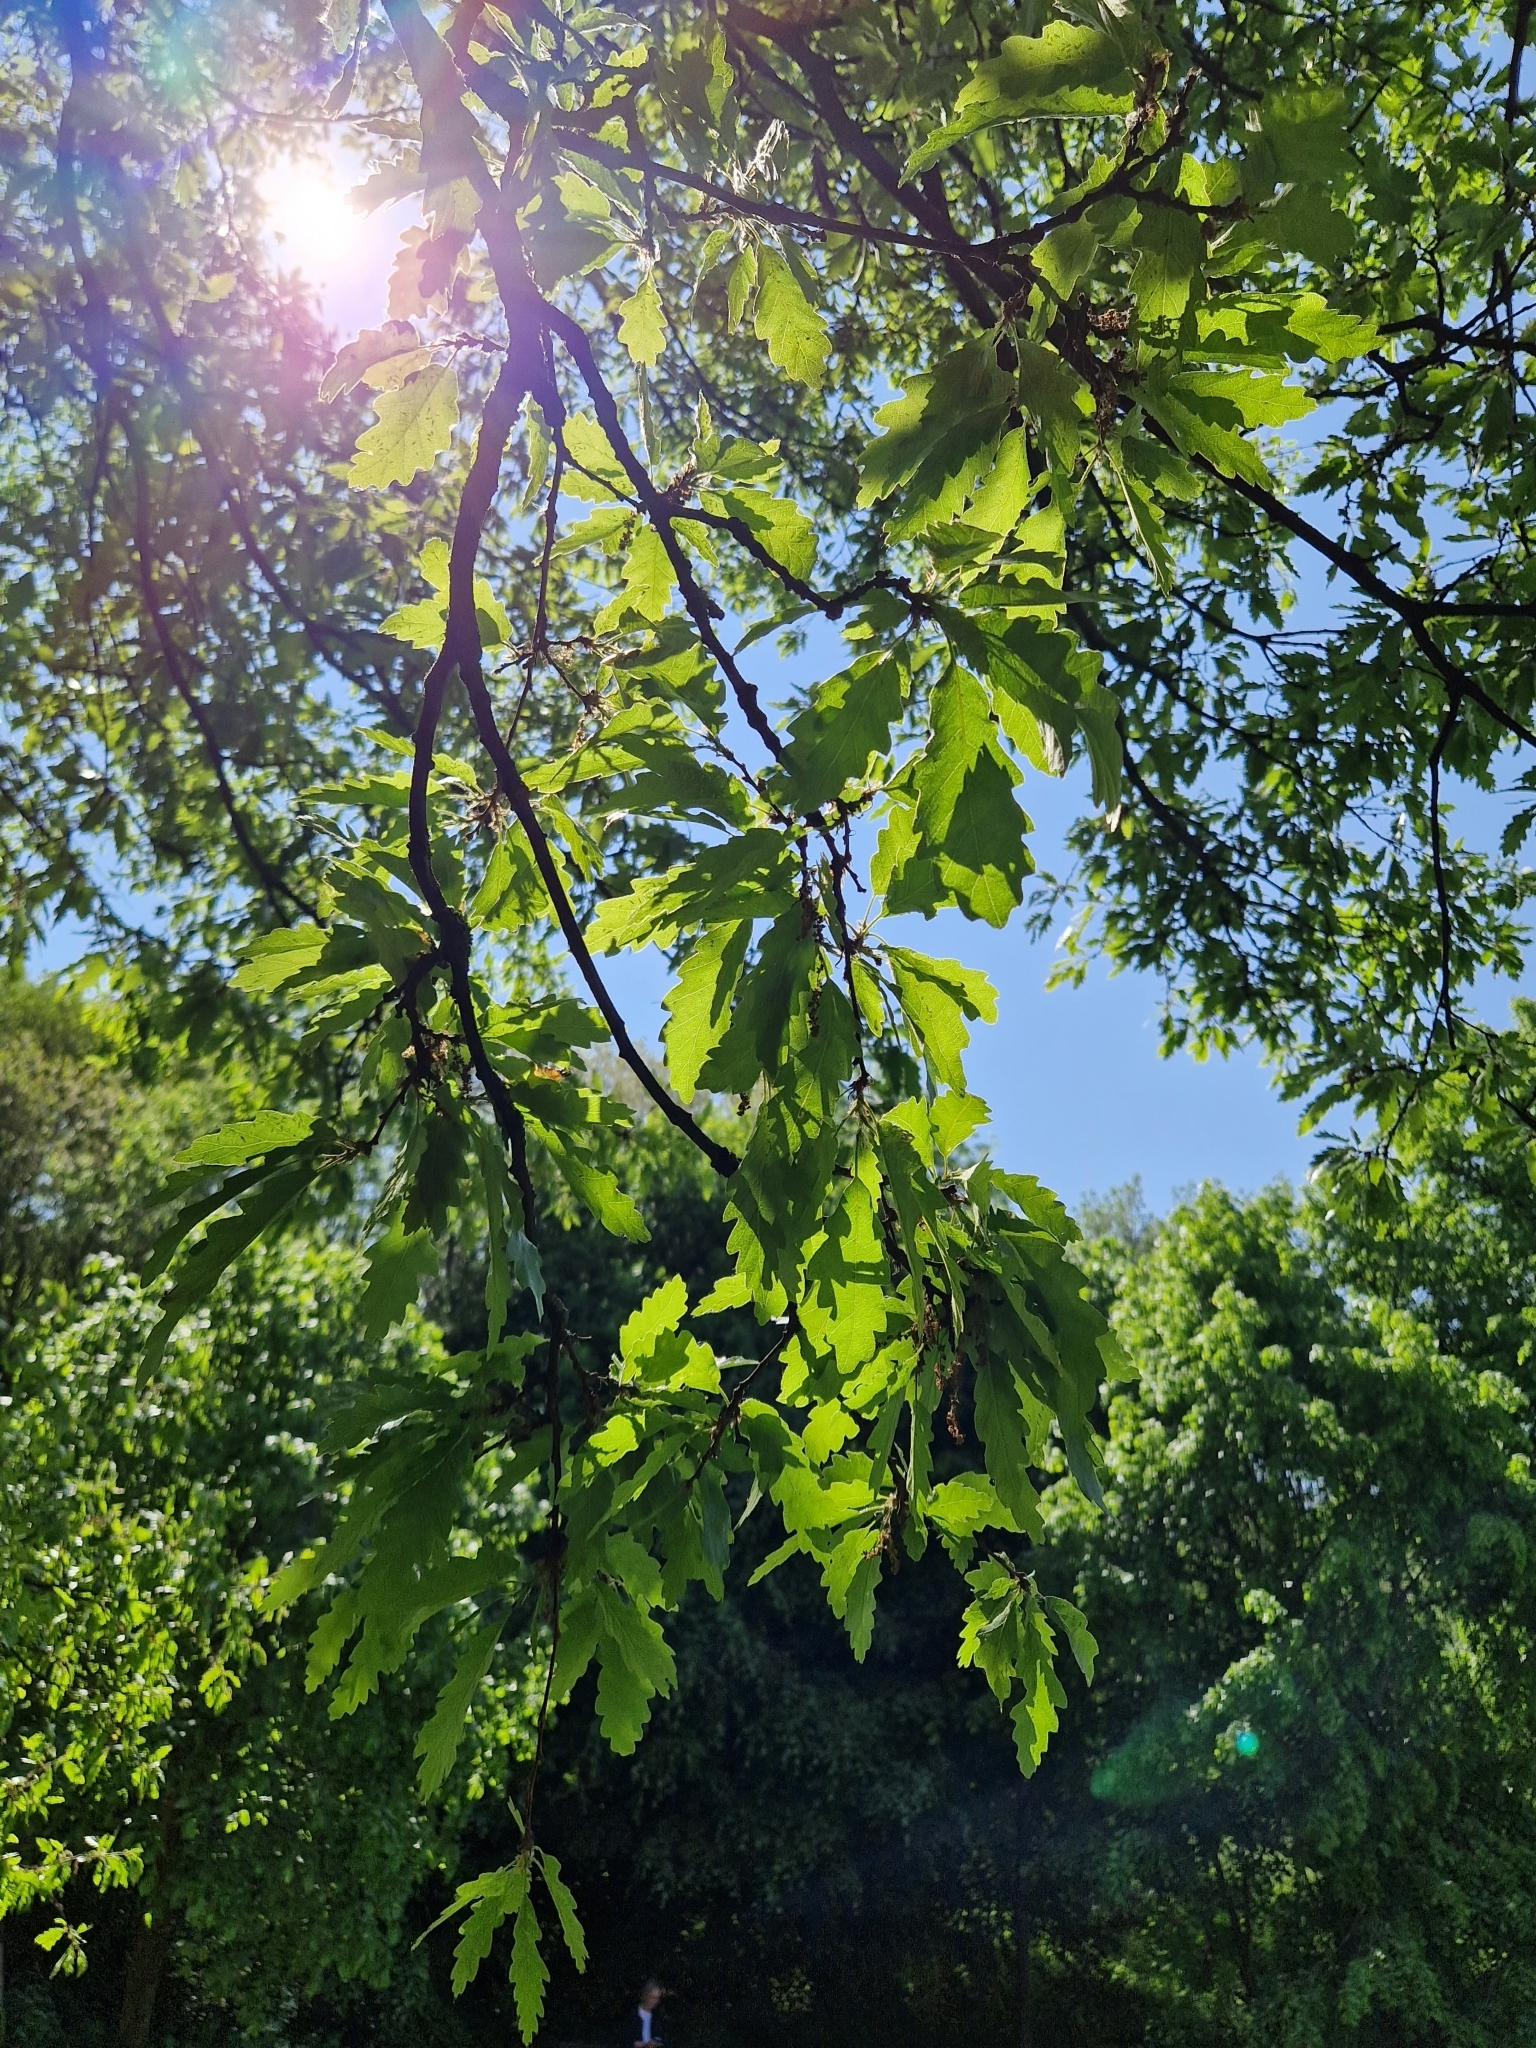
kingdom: Plantae
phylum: Tracheophyta
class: Magnoliopsida
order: Fagales
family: Fagaceae
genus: Quercus
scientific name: Quercus cerris
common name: Turkey oak
